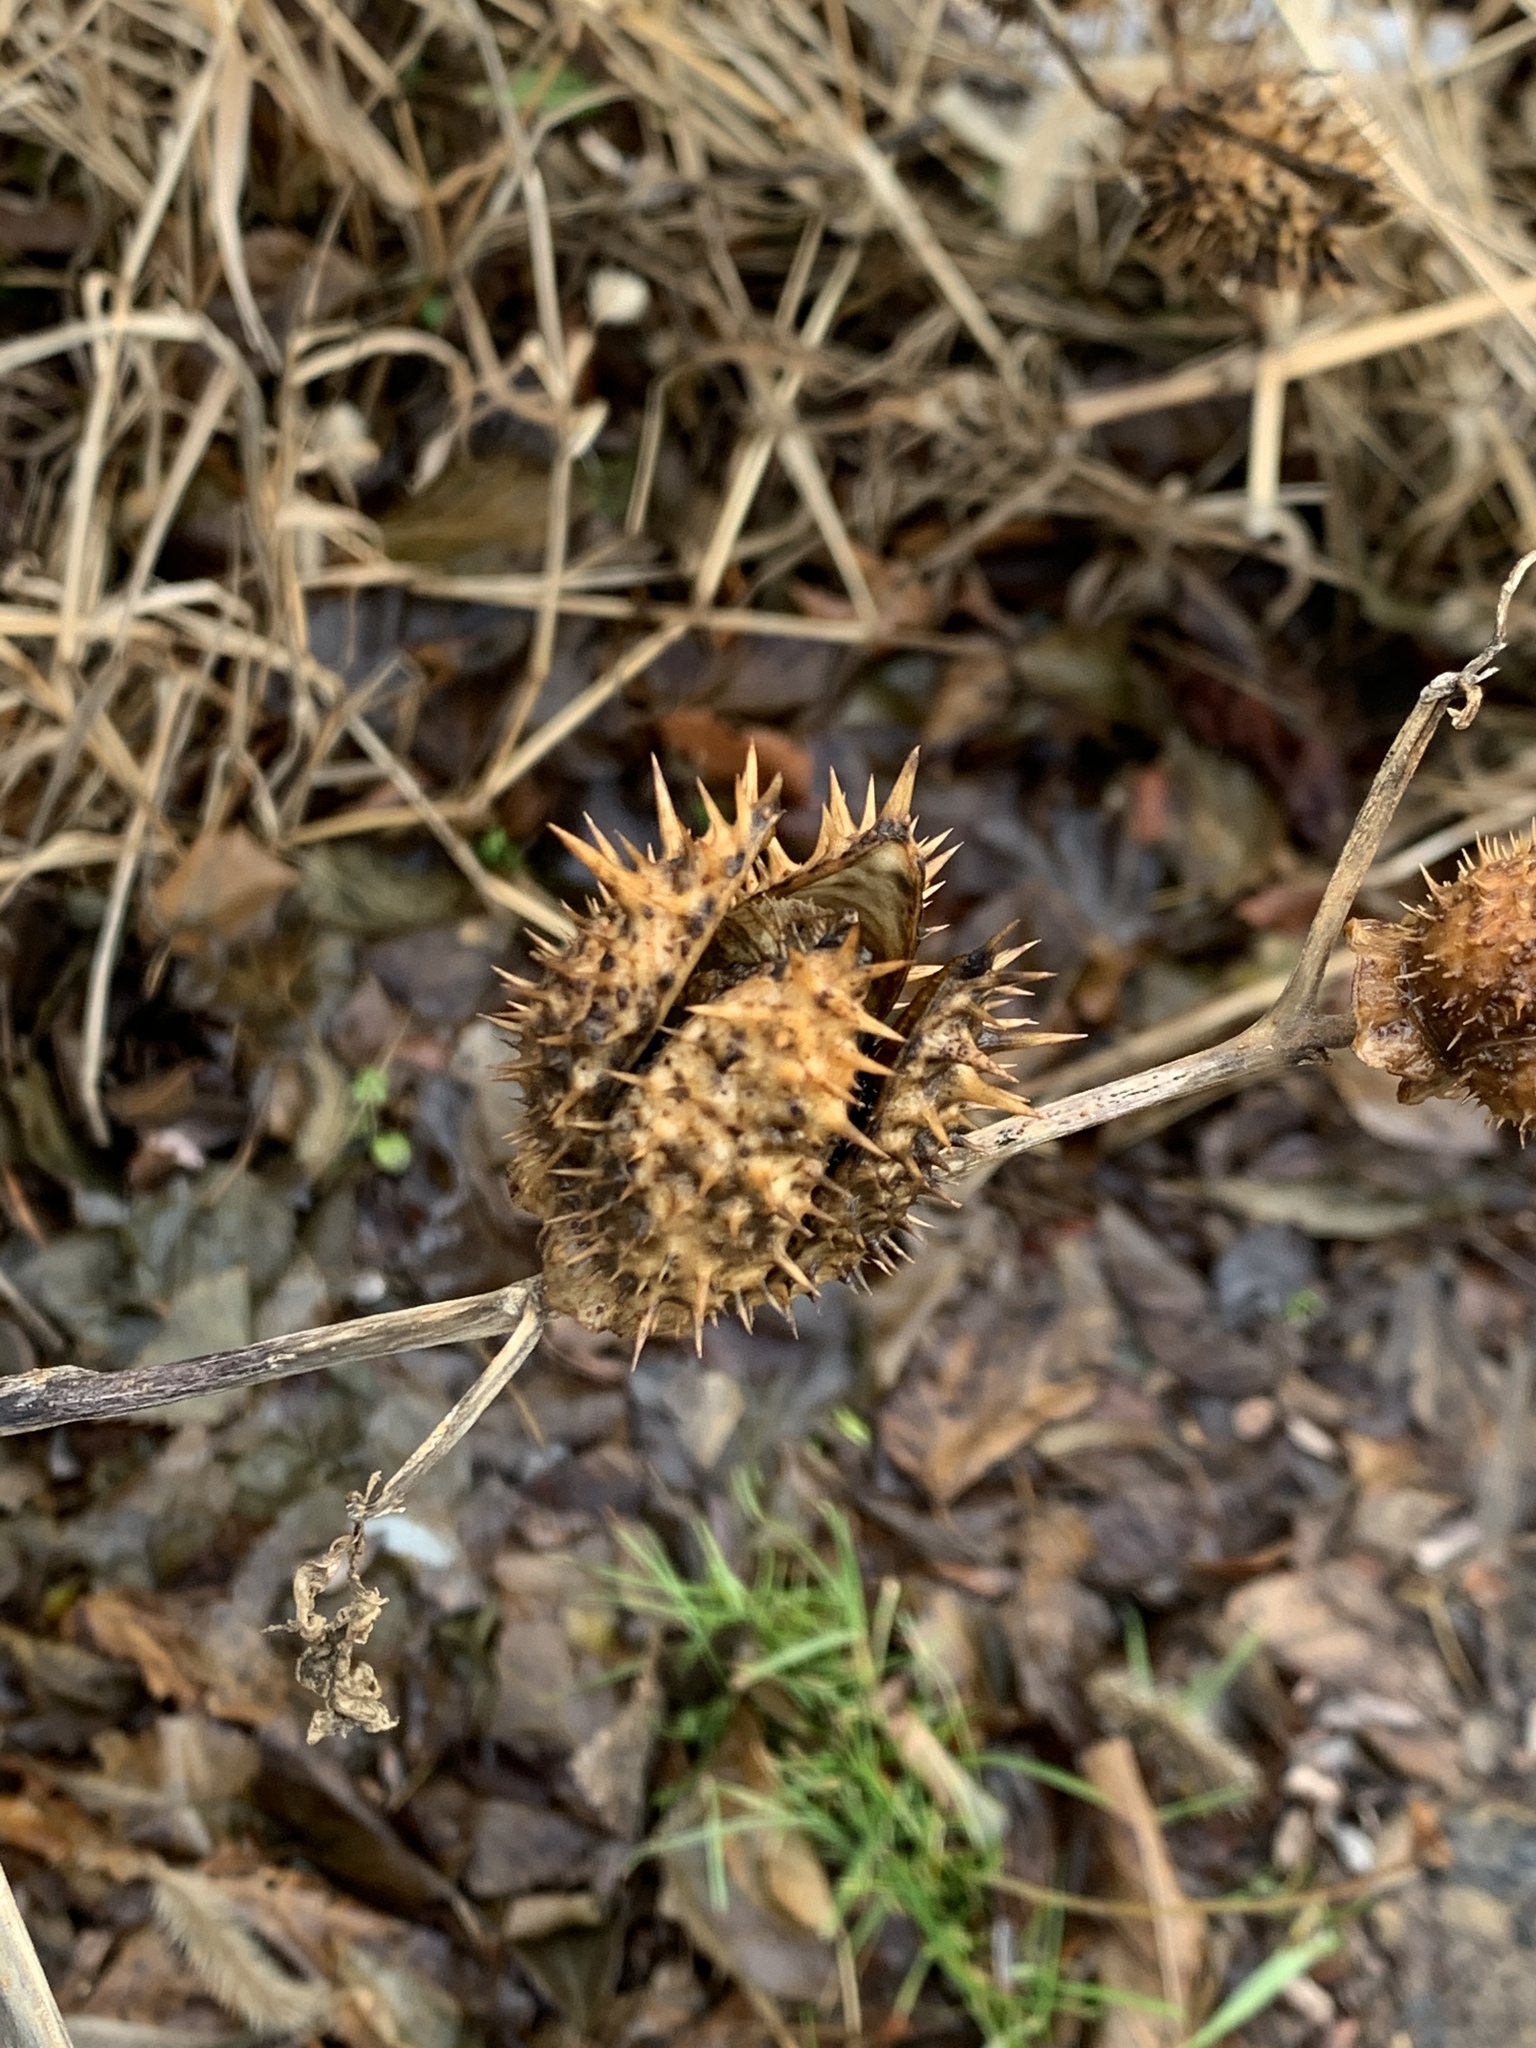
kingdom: Plantae
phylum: Tracheophyta
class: Magnoliopsida
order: Solanales
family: Solanaceae
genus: Datura
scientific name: Datura stramonium
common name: Thorn-apple
